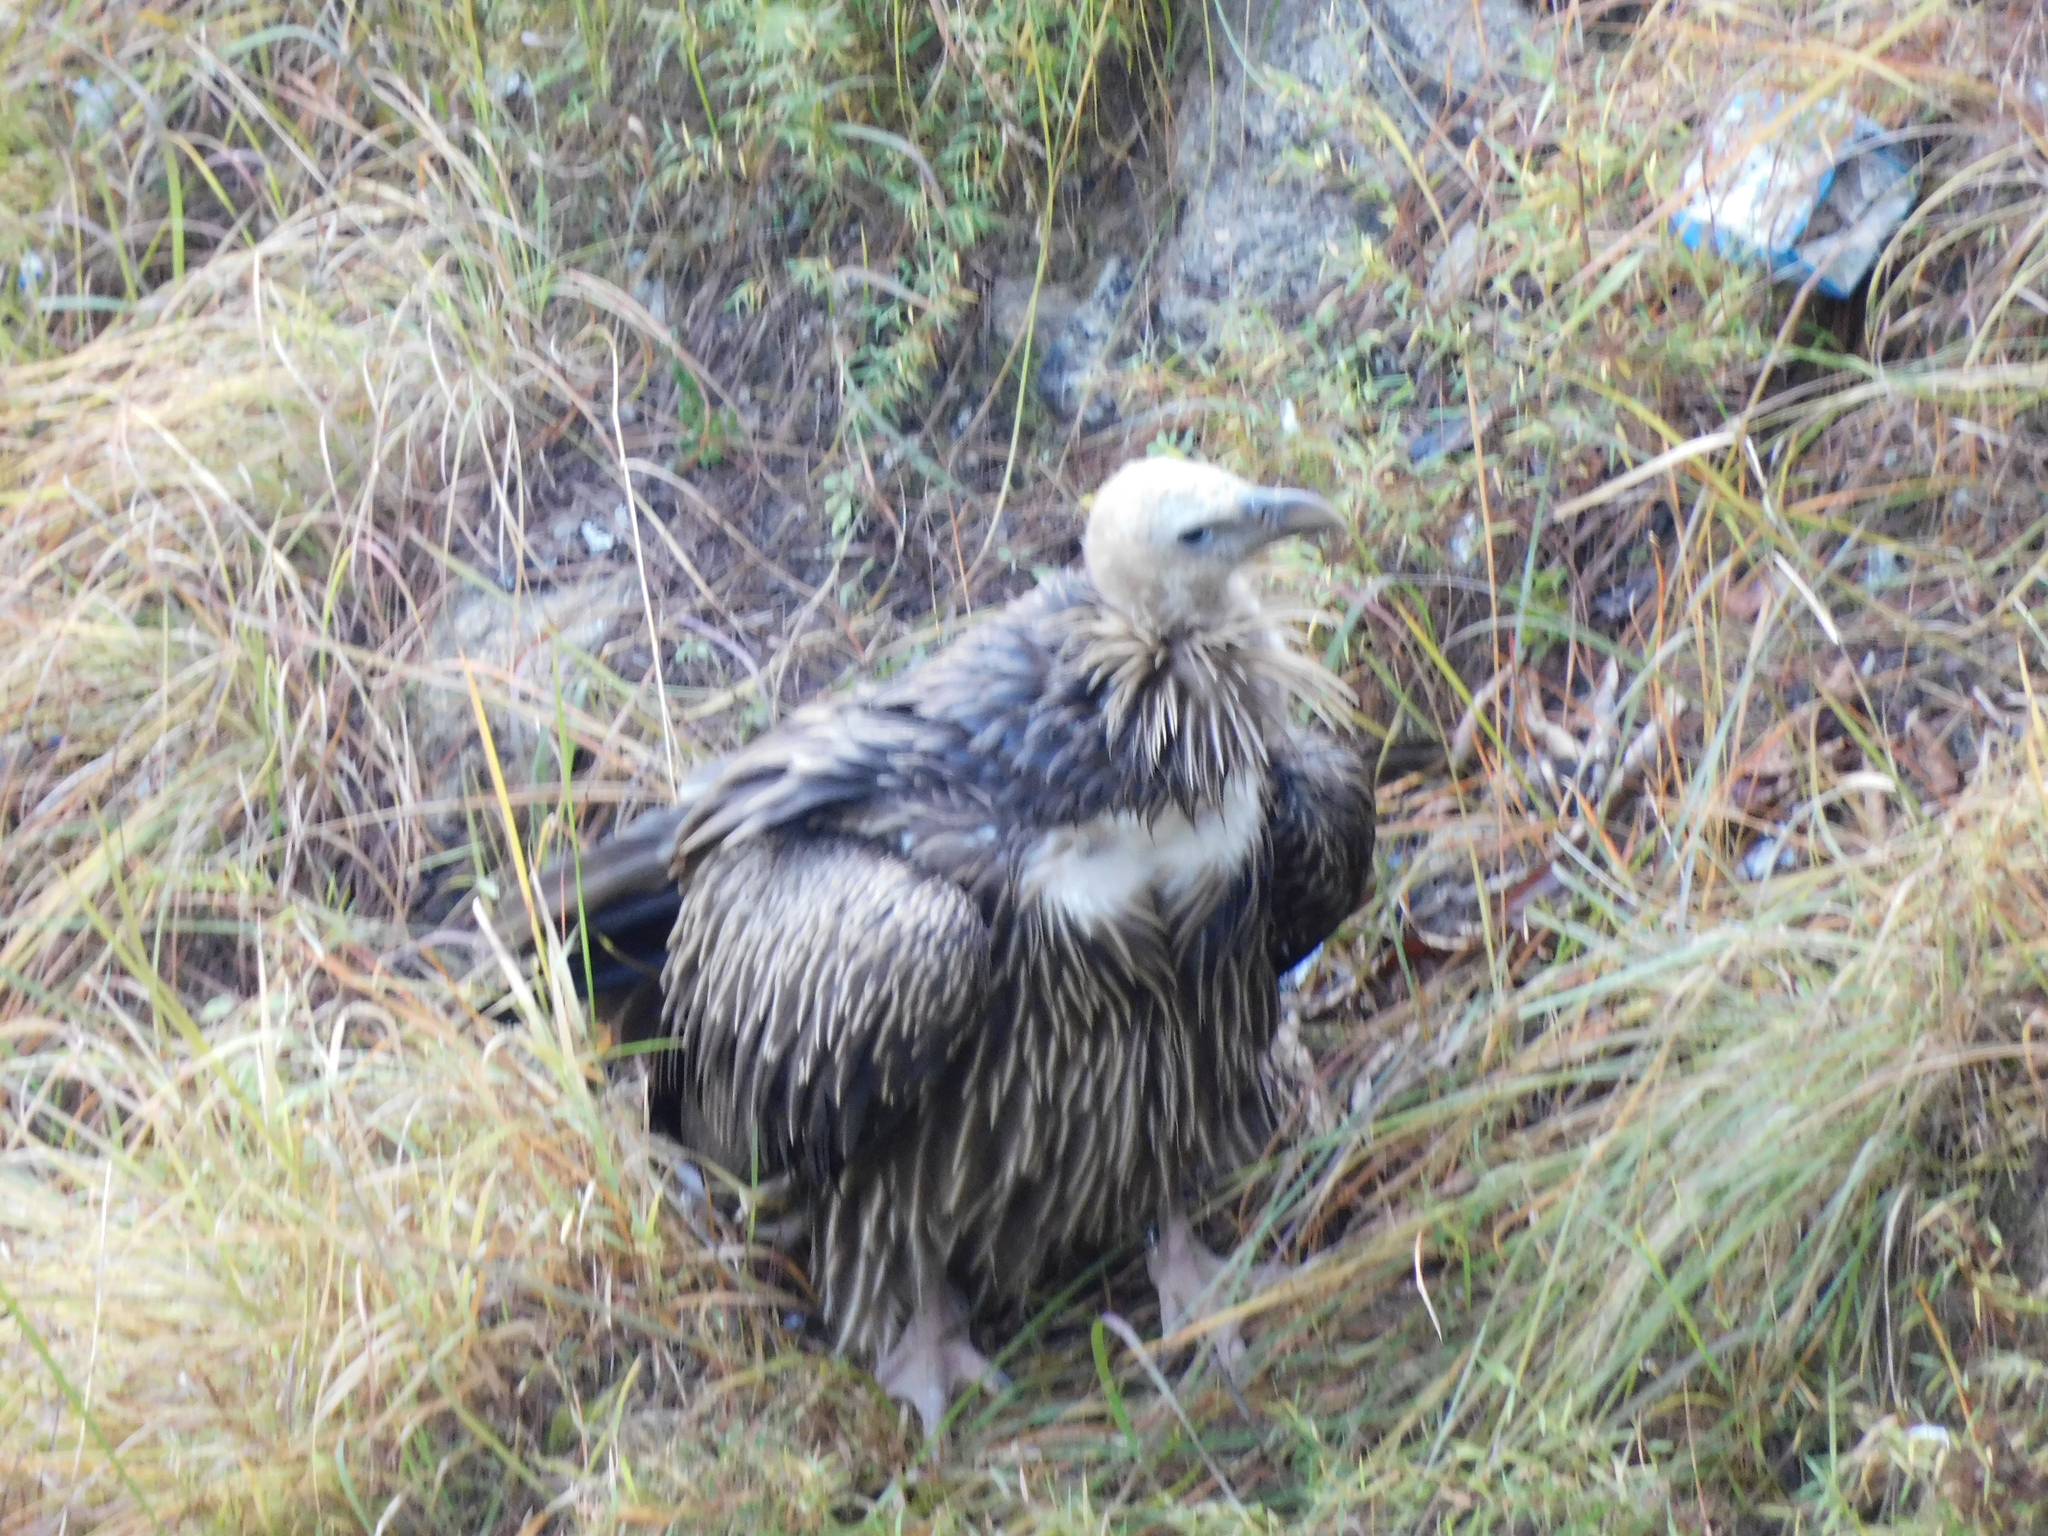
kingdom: Animalia
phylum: Chordata
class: Aves
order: Accipitriformes
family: Accipitridae
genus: Gyps
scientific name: Gyps himalayensis
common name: Himalayan griffon
